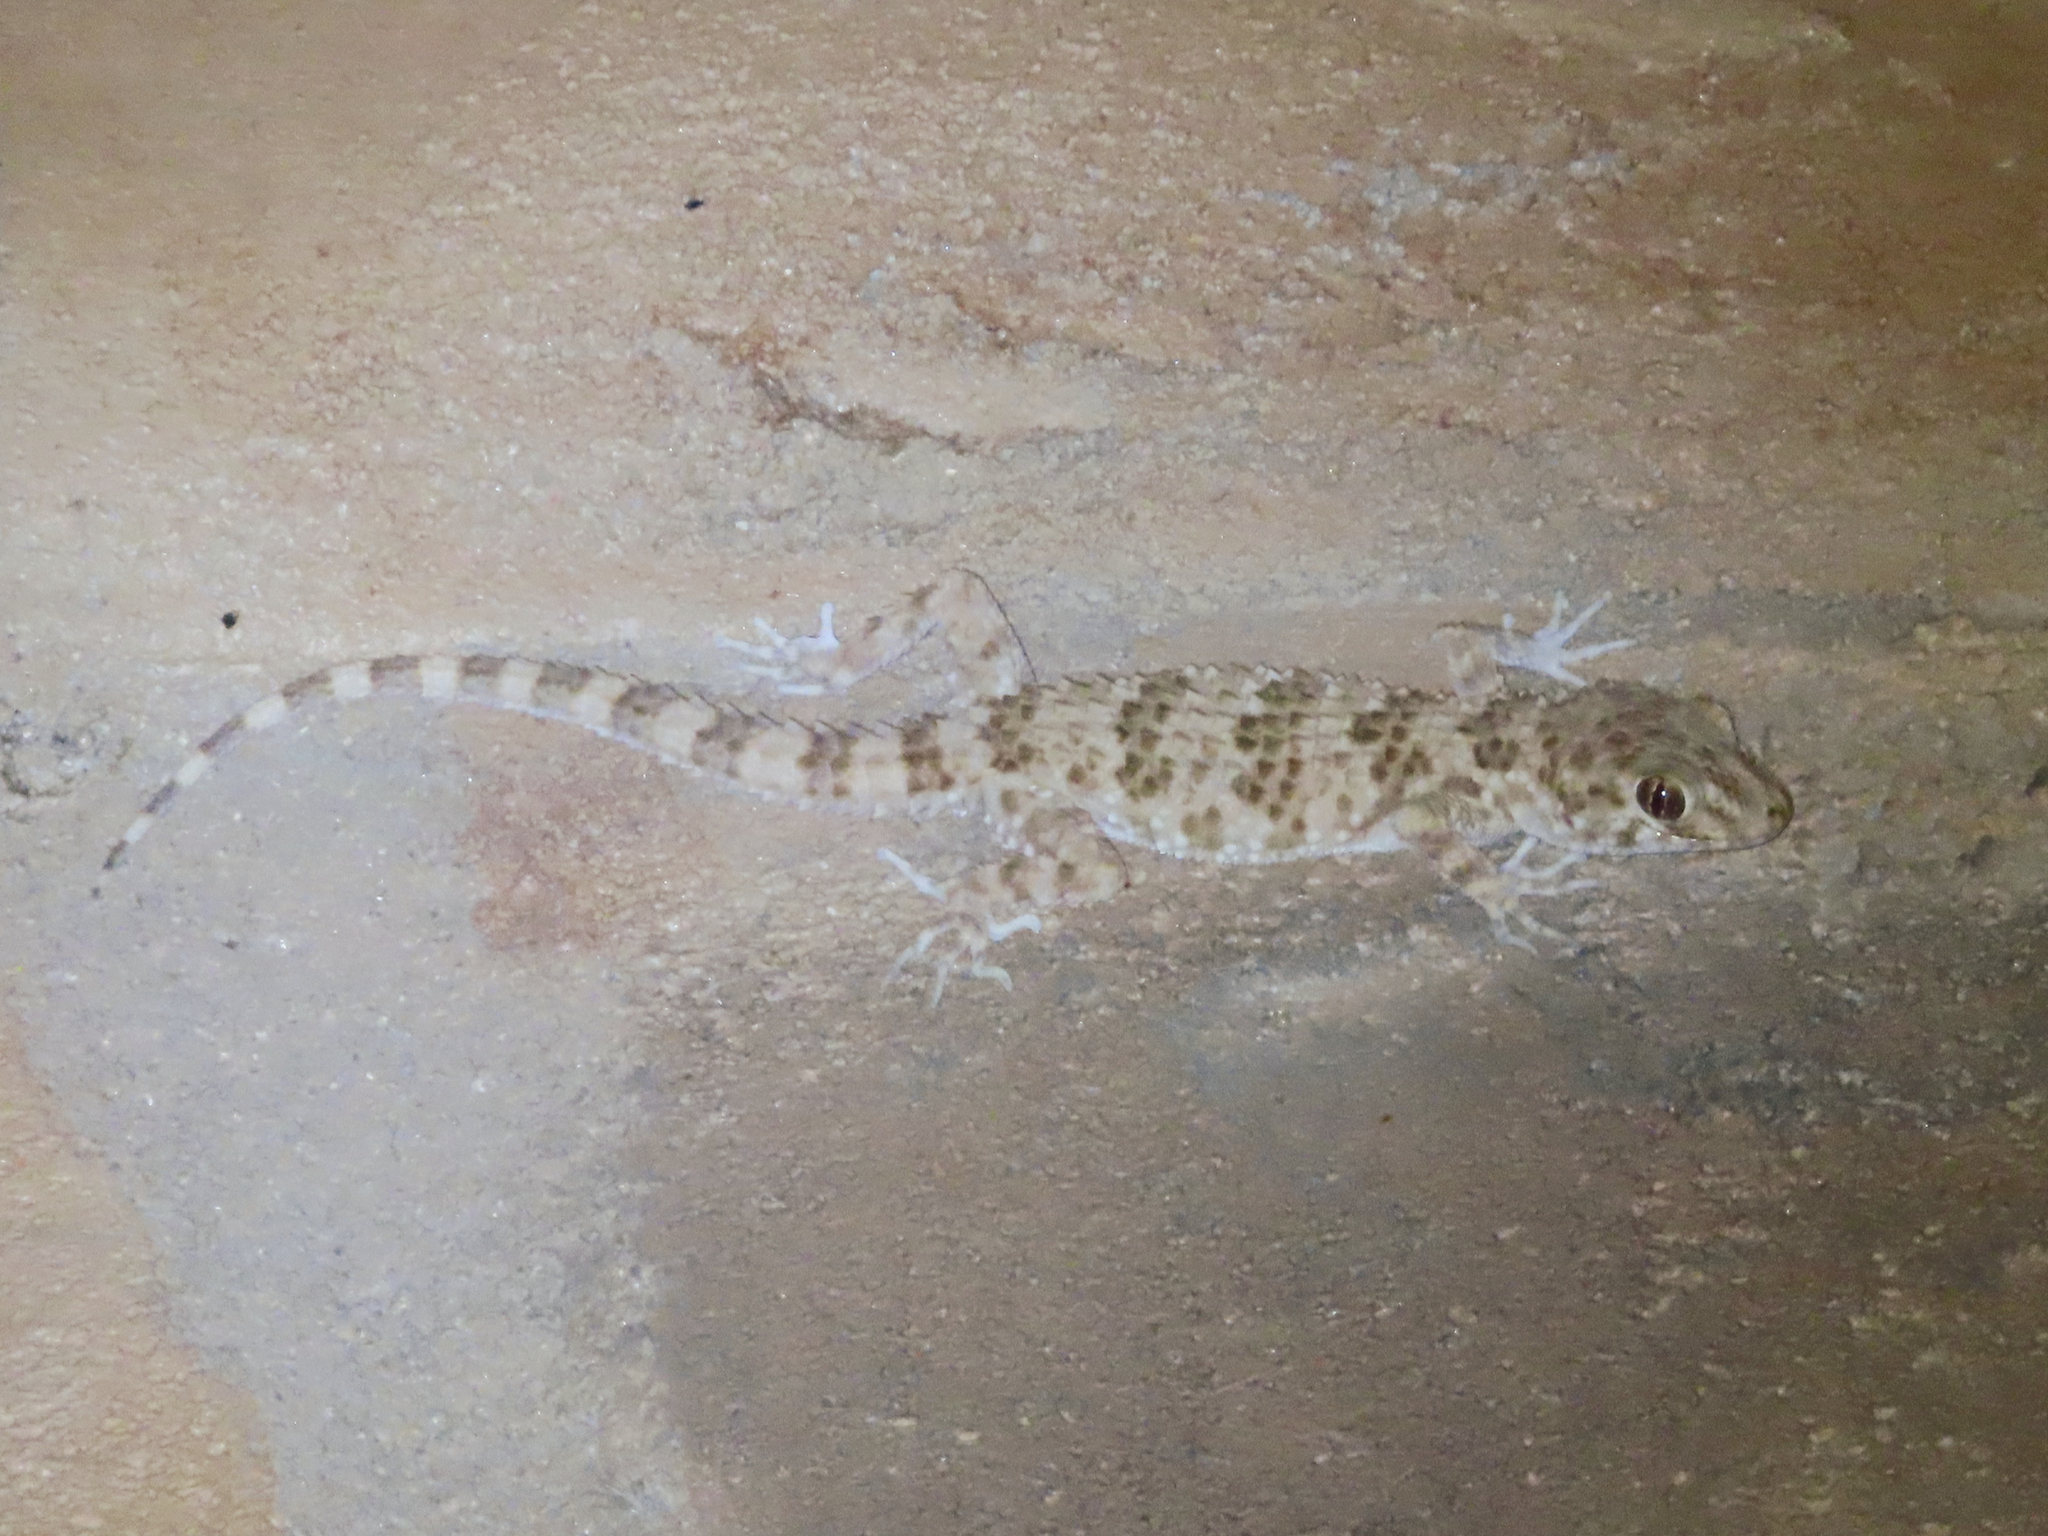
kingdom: Animalia
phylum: Chordata
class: Squamata
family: Gekkonidae
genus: Tenuidactylus
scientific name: Tenuidactylus caspius
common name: Caspian bent-toed gecko
